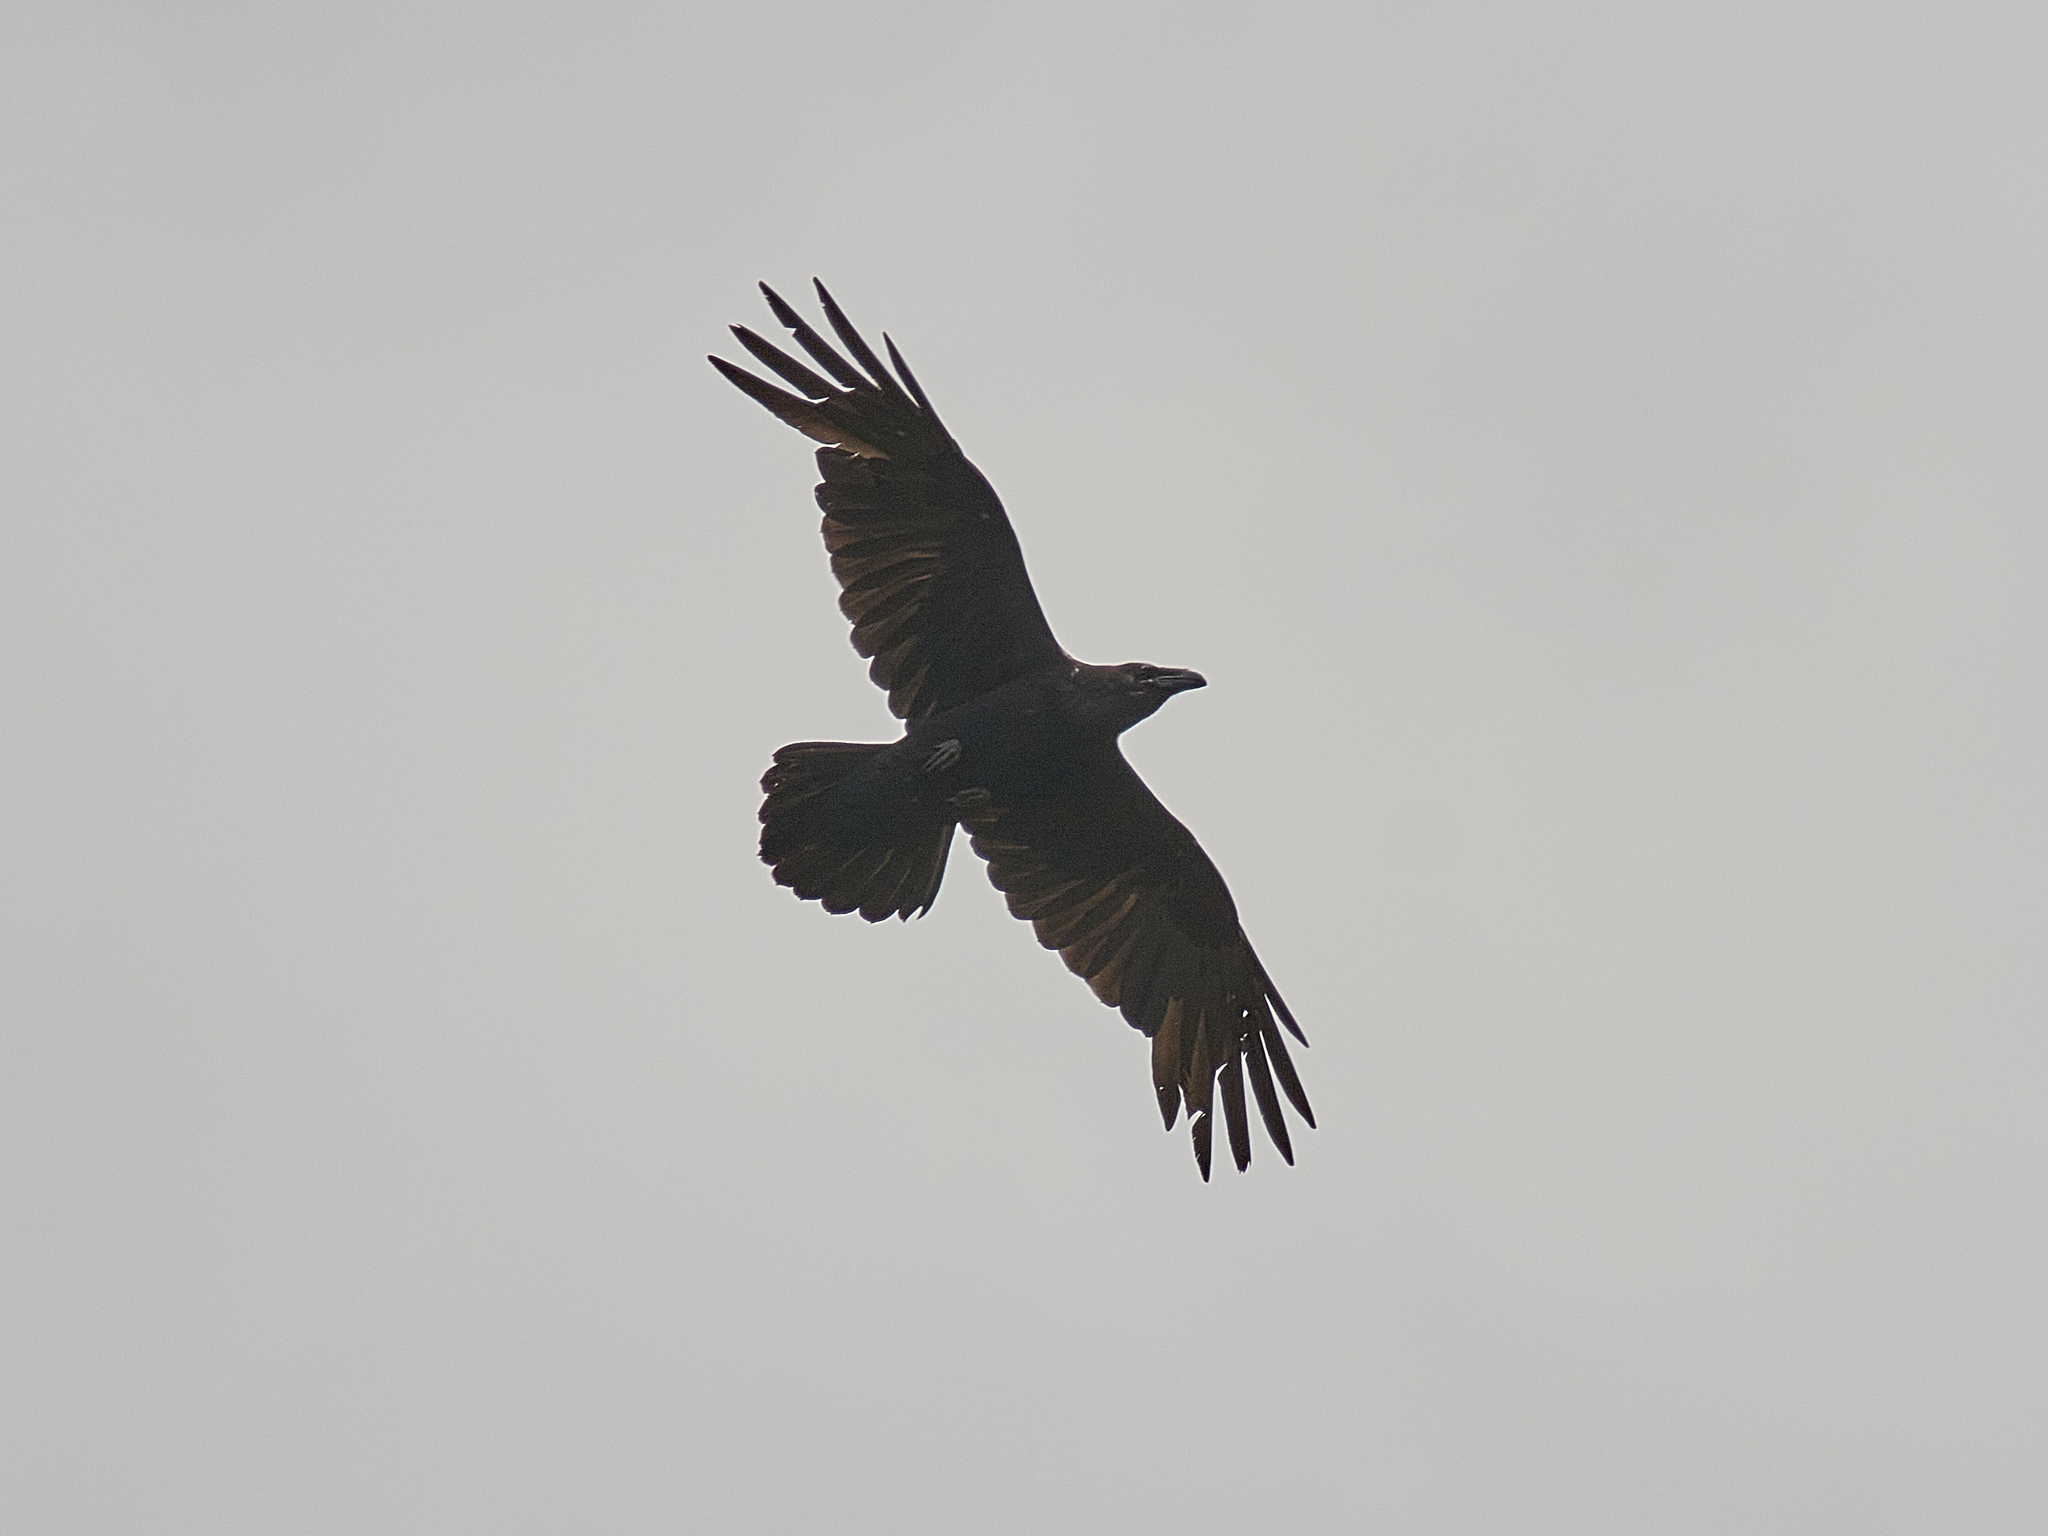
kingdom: Animalia
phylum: Chordata
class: Aves
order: Passeriformes
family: Corvidae
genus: Corvus
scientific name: Corvus corax
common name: Common raven
